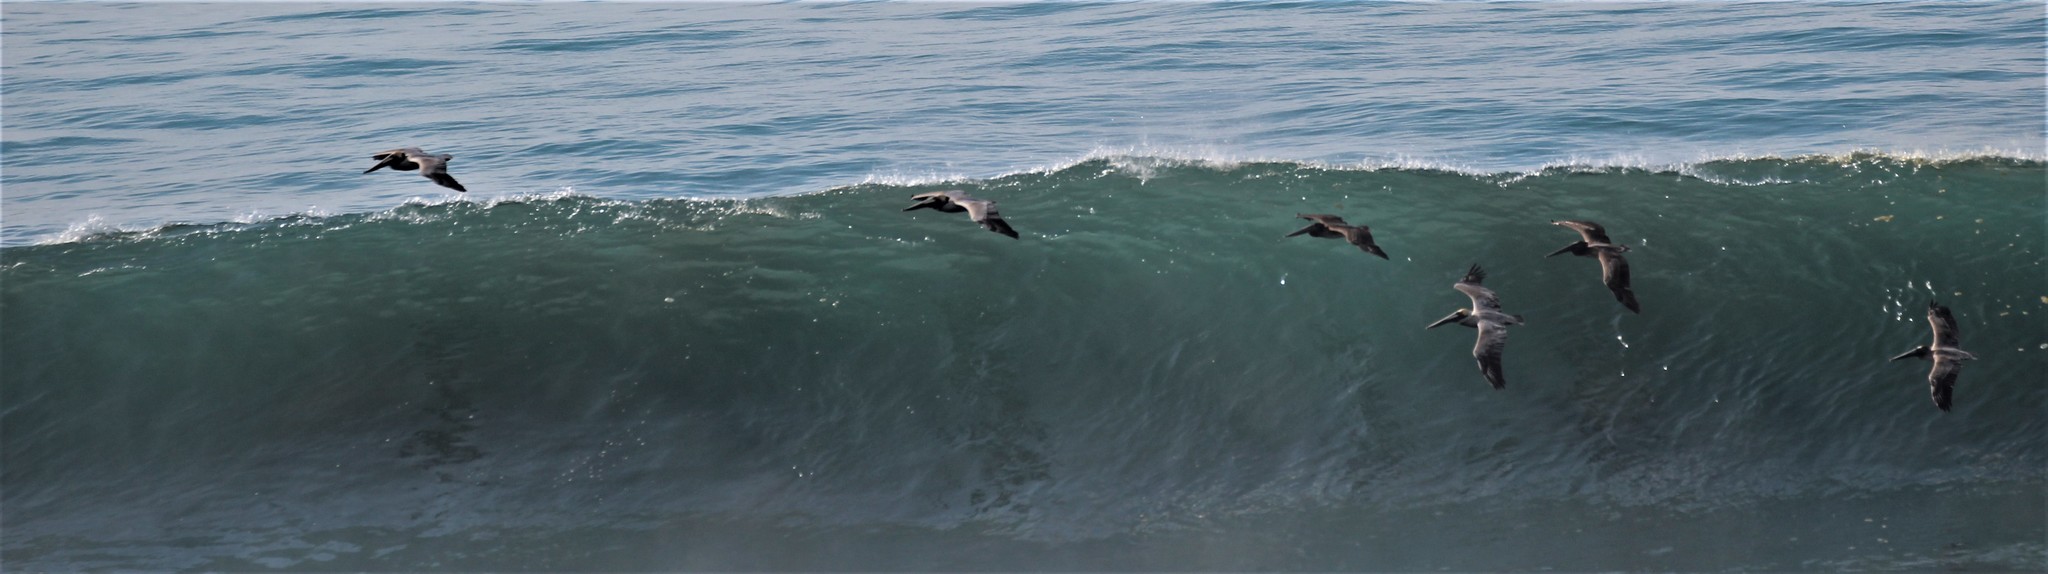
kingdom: Animalia
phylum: Chordata
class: Aves
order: Pelecaniformes
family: Pelecanidae
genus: Pelecanus
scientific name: Pelecanus occidentalis
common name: Brown pelican
